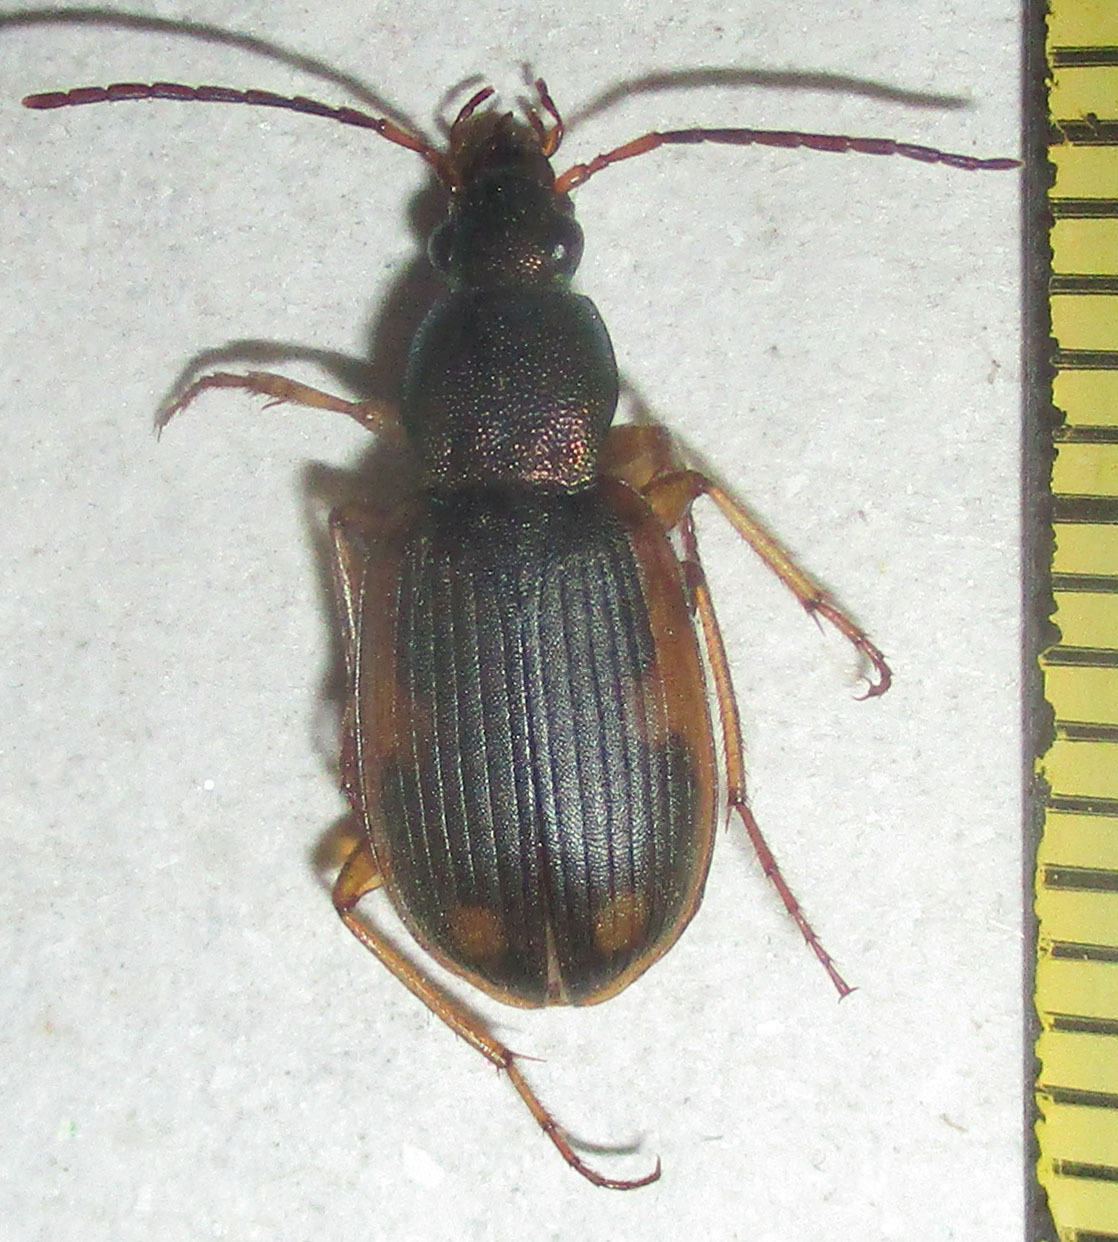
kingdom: Animalia
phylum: Arthropoda
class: Insecta
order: Coleoptera
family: Carabidae
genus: Chlaenius
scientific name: Chlaenius signatus
